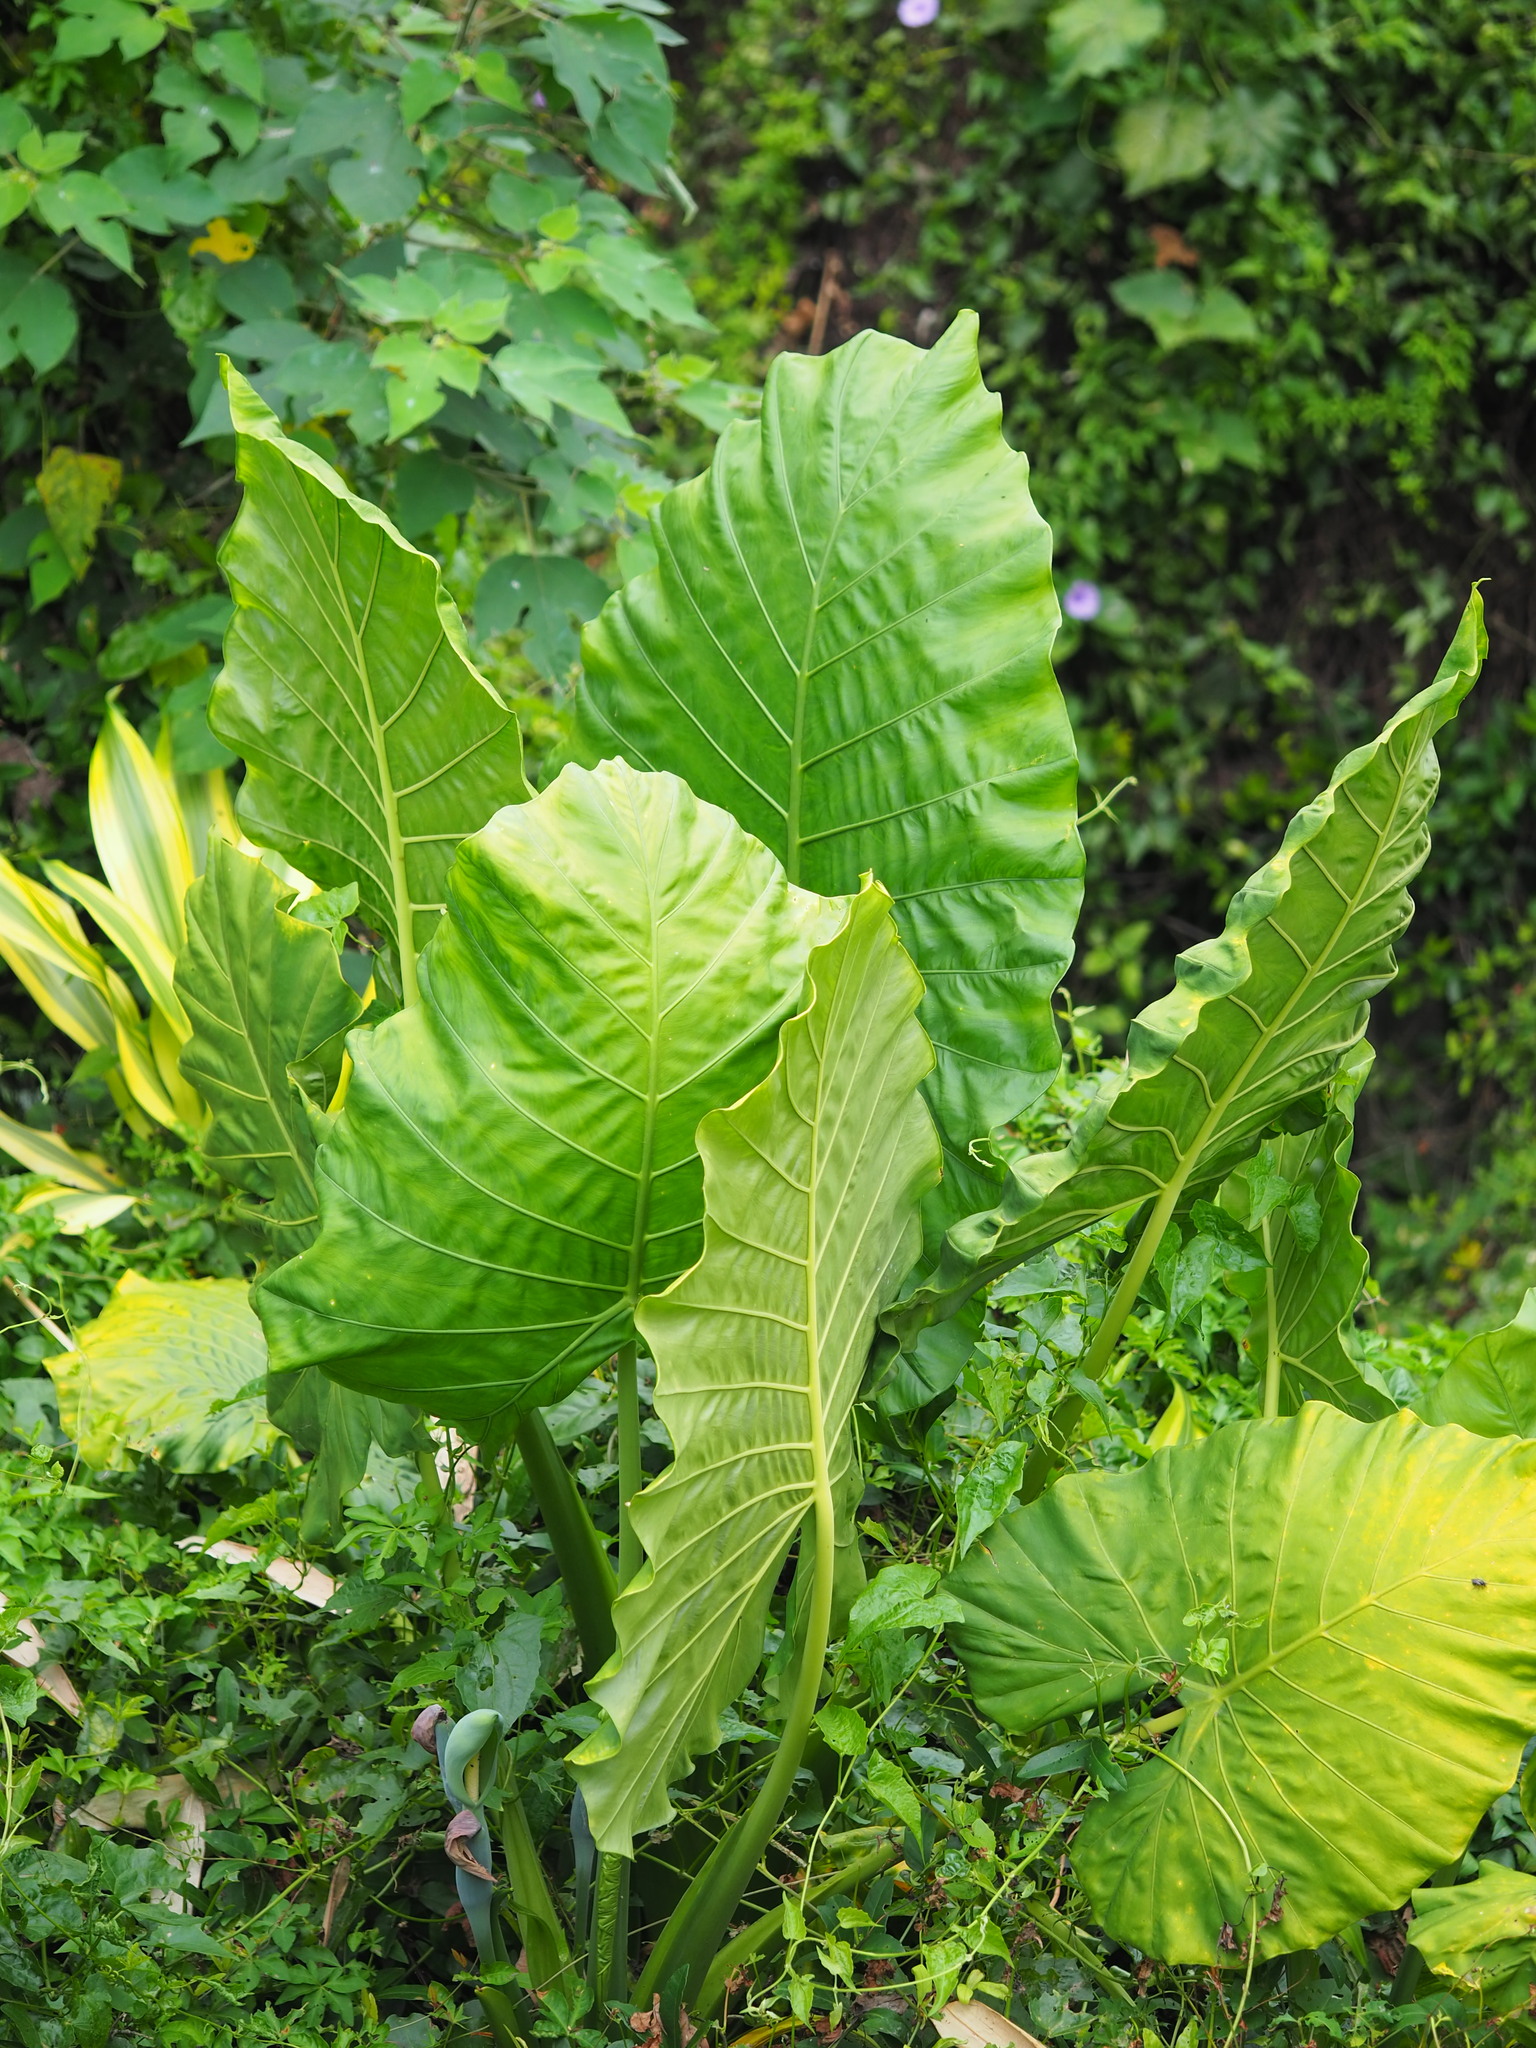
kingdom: Plantae
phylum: Tracheophyta
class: Liliopsida
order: Alismatales
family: Araceae
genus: Alocasia
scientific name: Alocasia odora
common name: Asian taro
